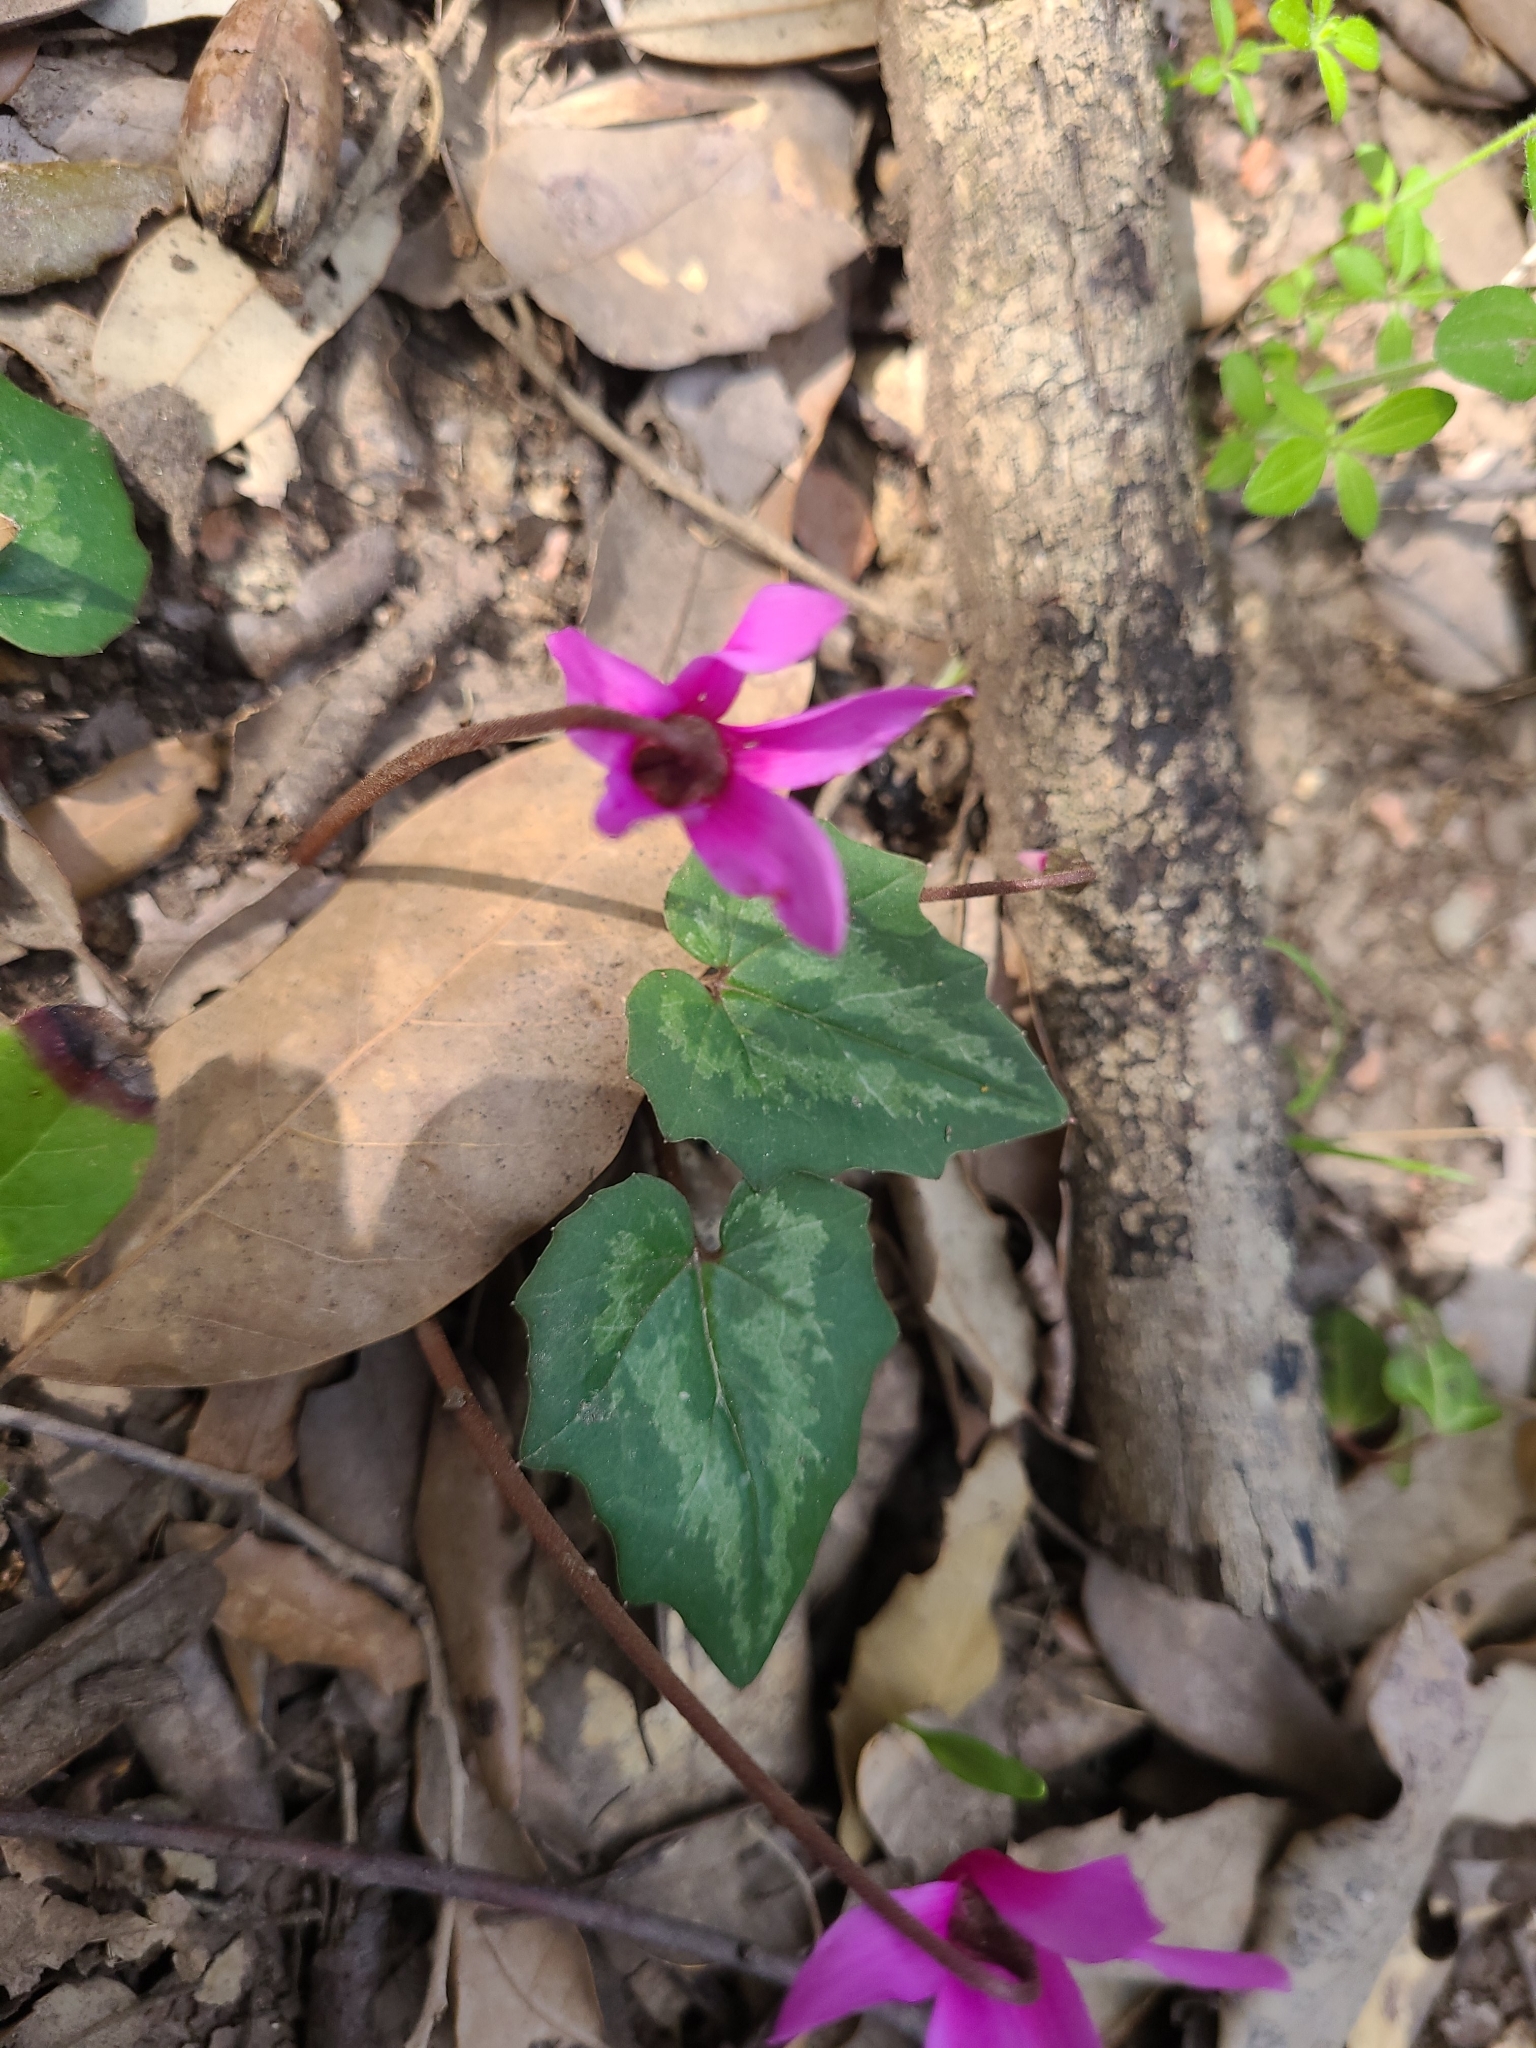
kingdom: Plantae
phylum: Tracheophyta
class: Magnoliopsida
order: Ericales
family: Primulaceae
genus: Cyclamen
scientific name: Cyclamen repandum
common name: Spring sowbread
